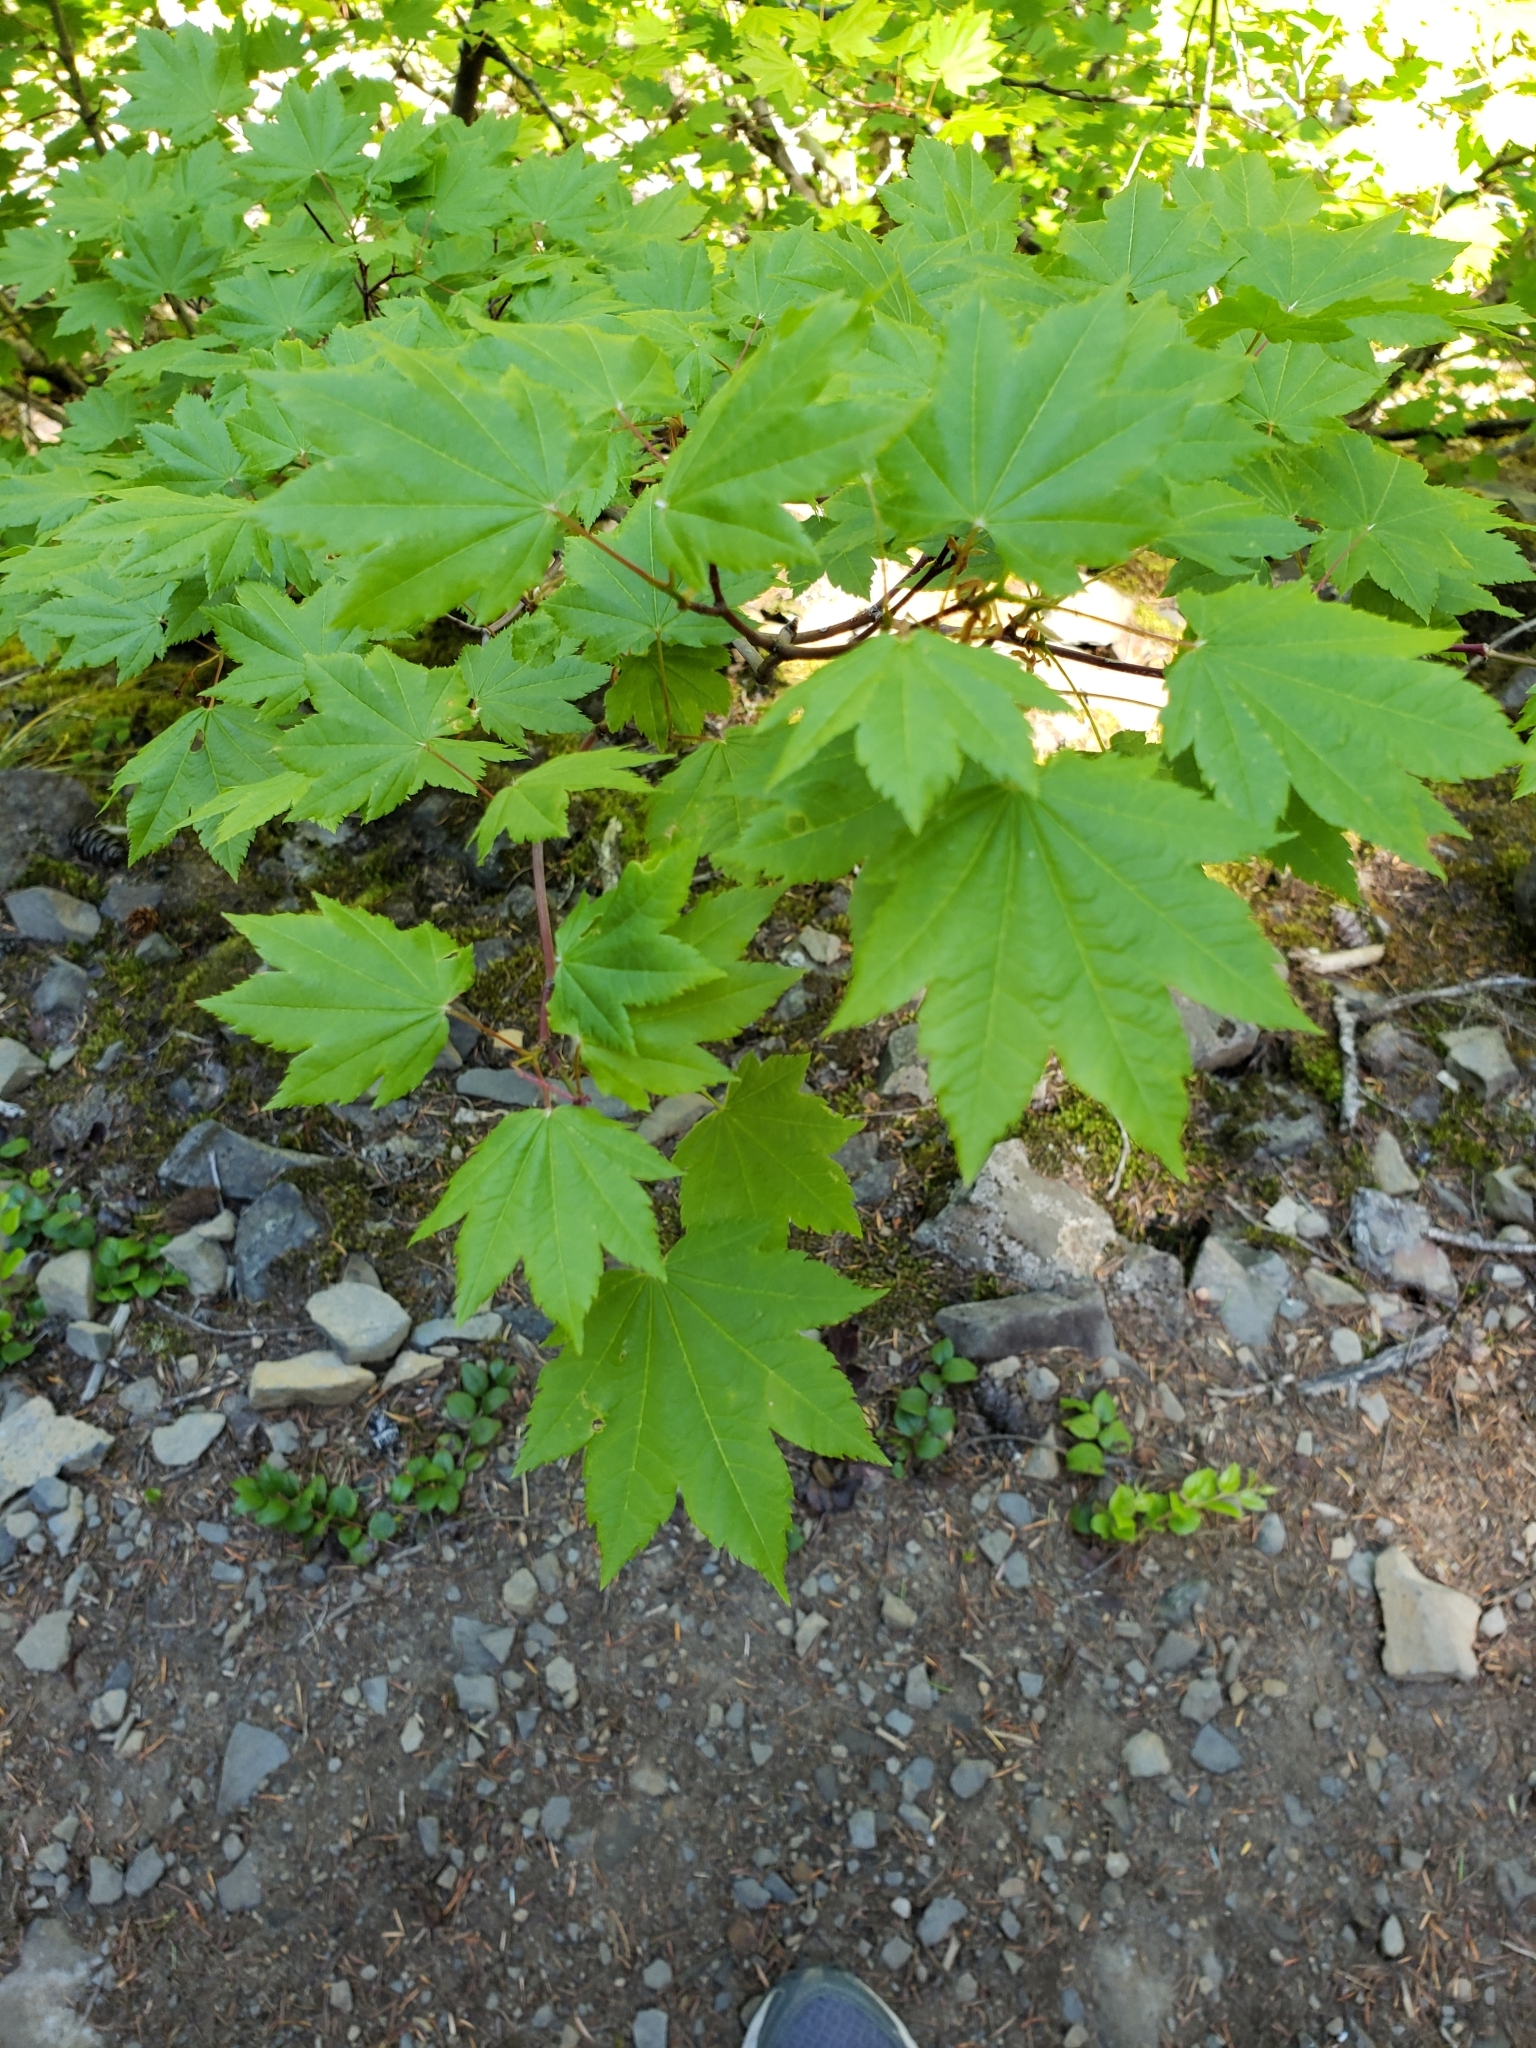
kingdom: Plantae
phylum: Tracheophyta
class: Magnoliopsida
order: Sapindales
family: Sapindaceae
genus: Acer
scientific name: Acer circinatum
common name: Vine maple
